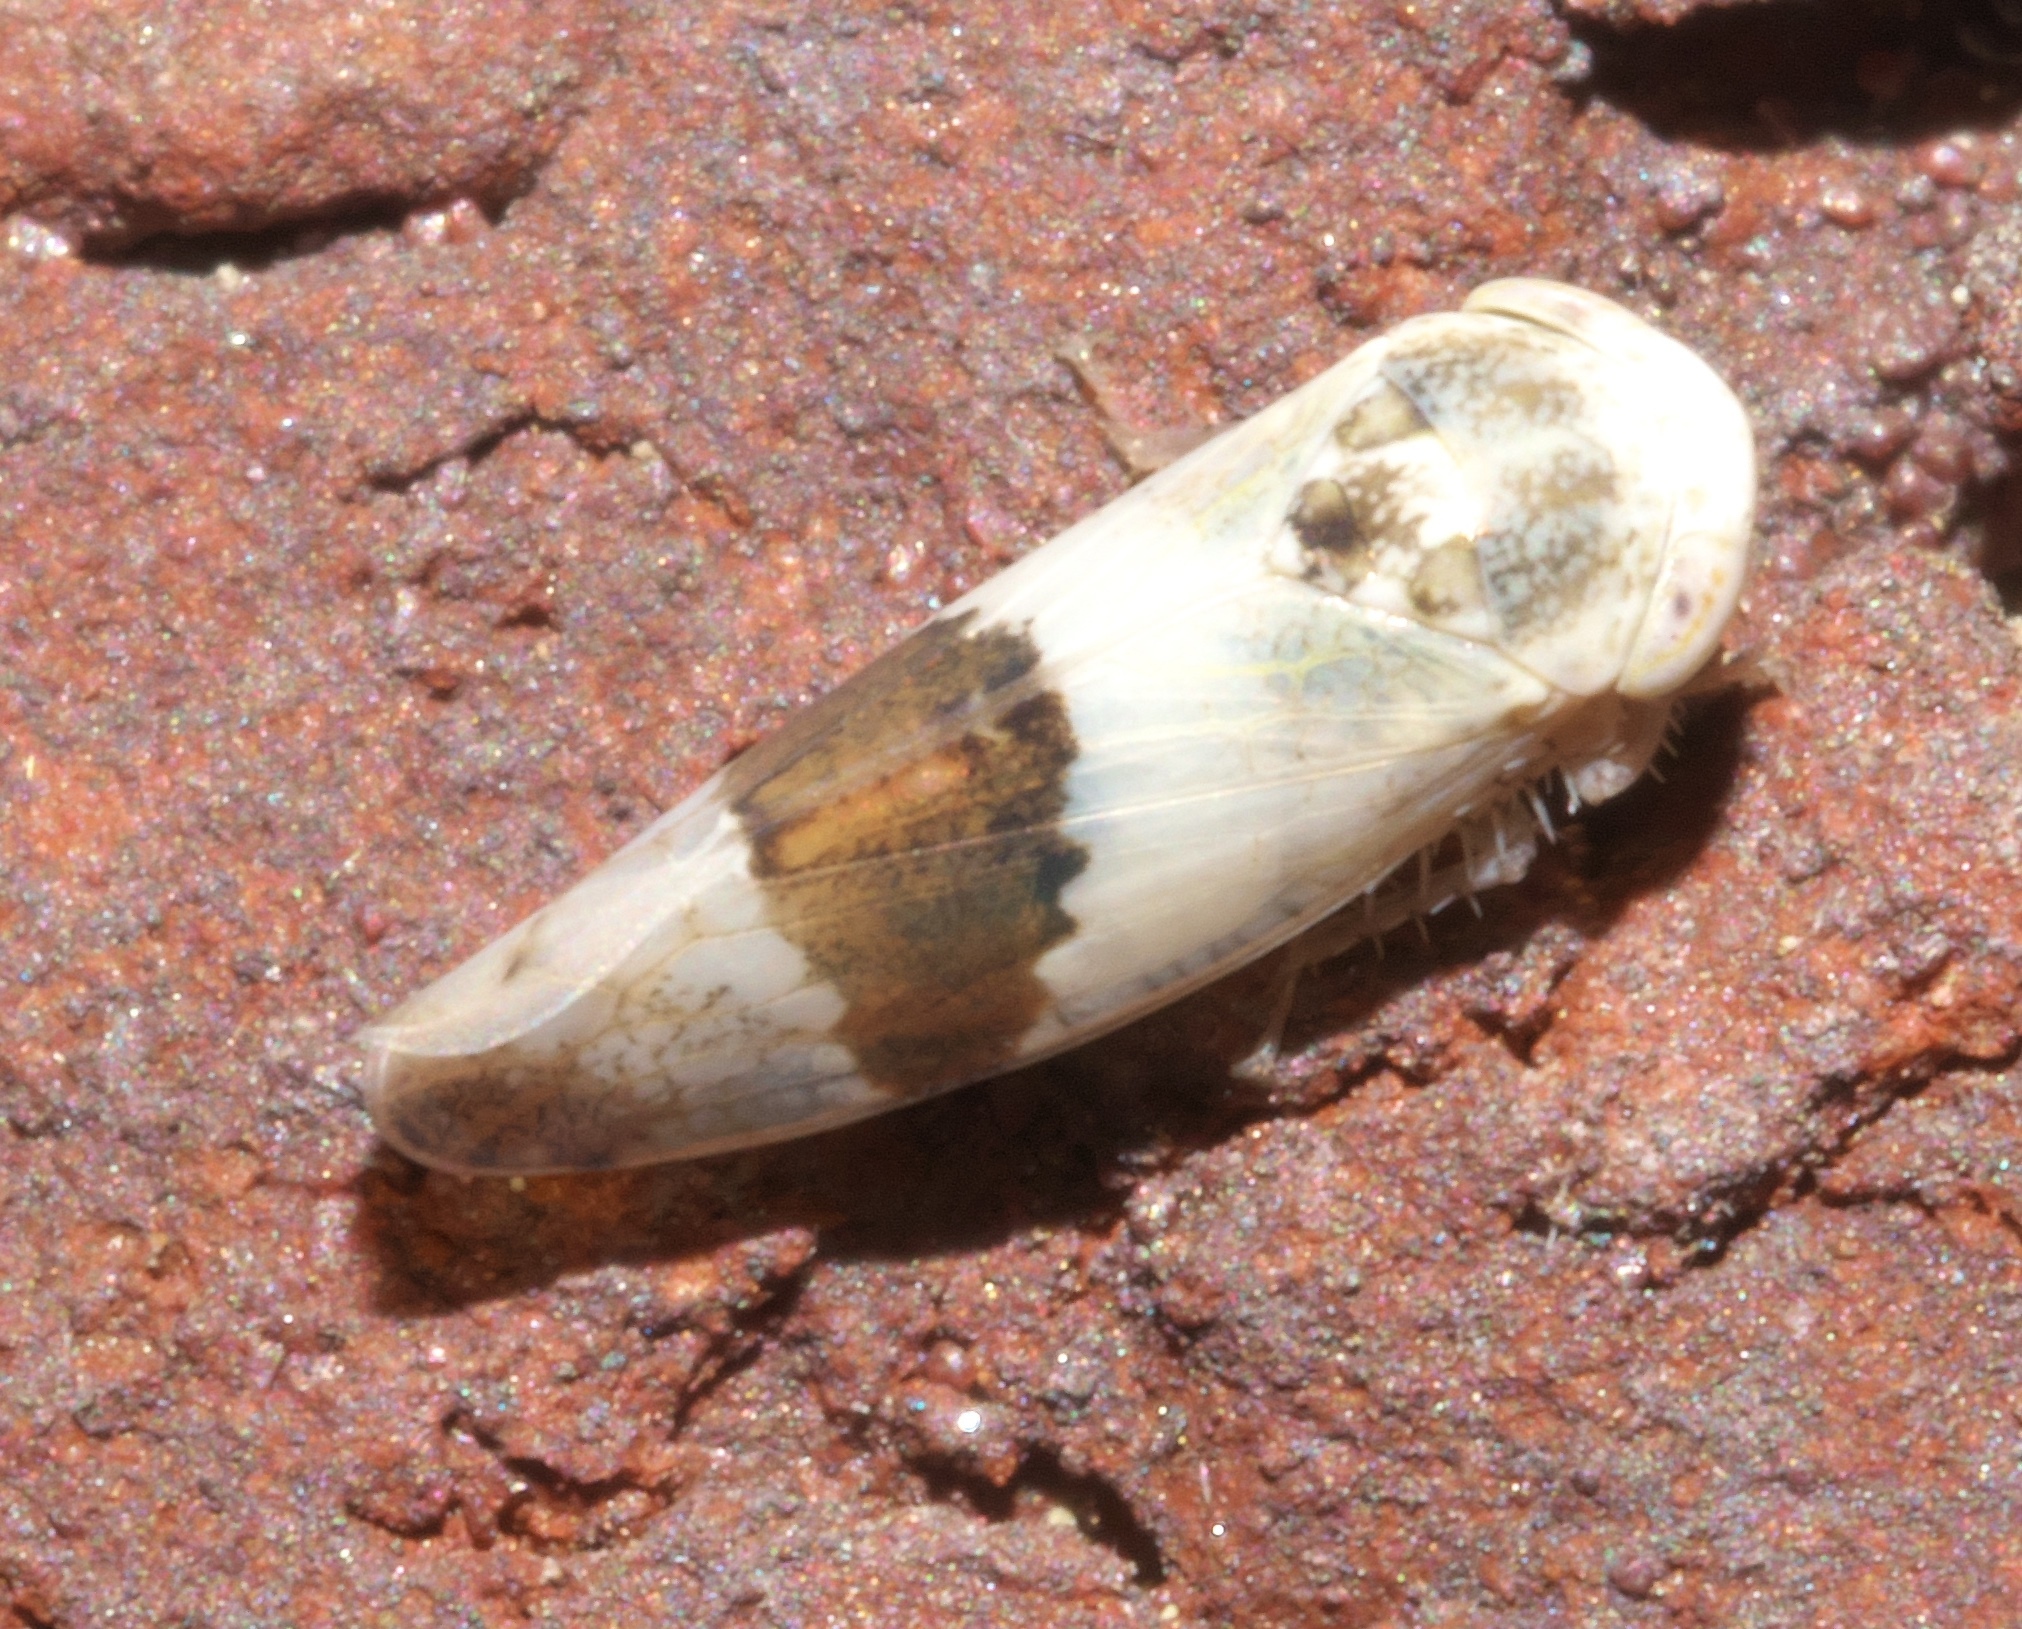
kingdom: Animalia
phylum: Arthropoda
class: Insecta
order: Hemiptera
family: Cicadellidae
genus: Norvellina
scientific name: Norvellina seminuda
